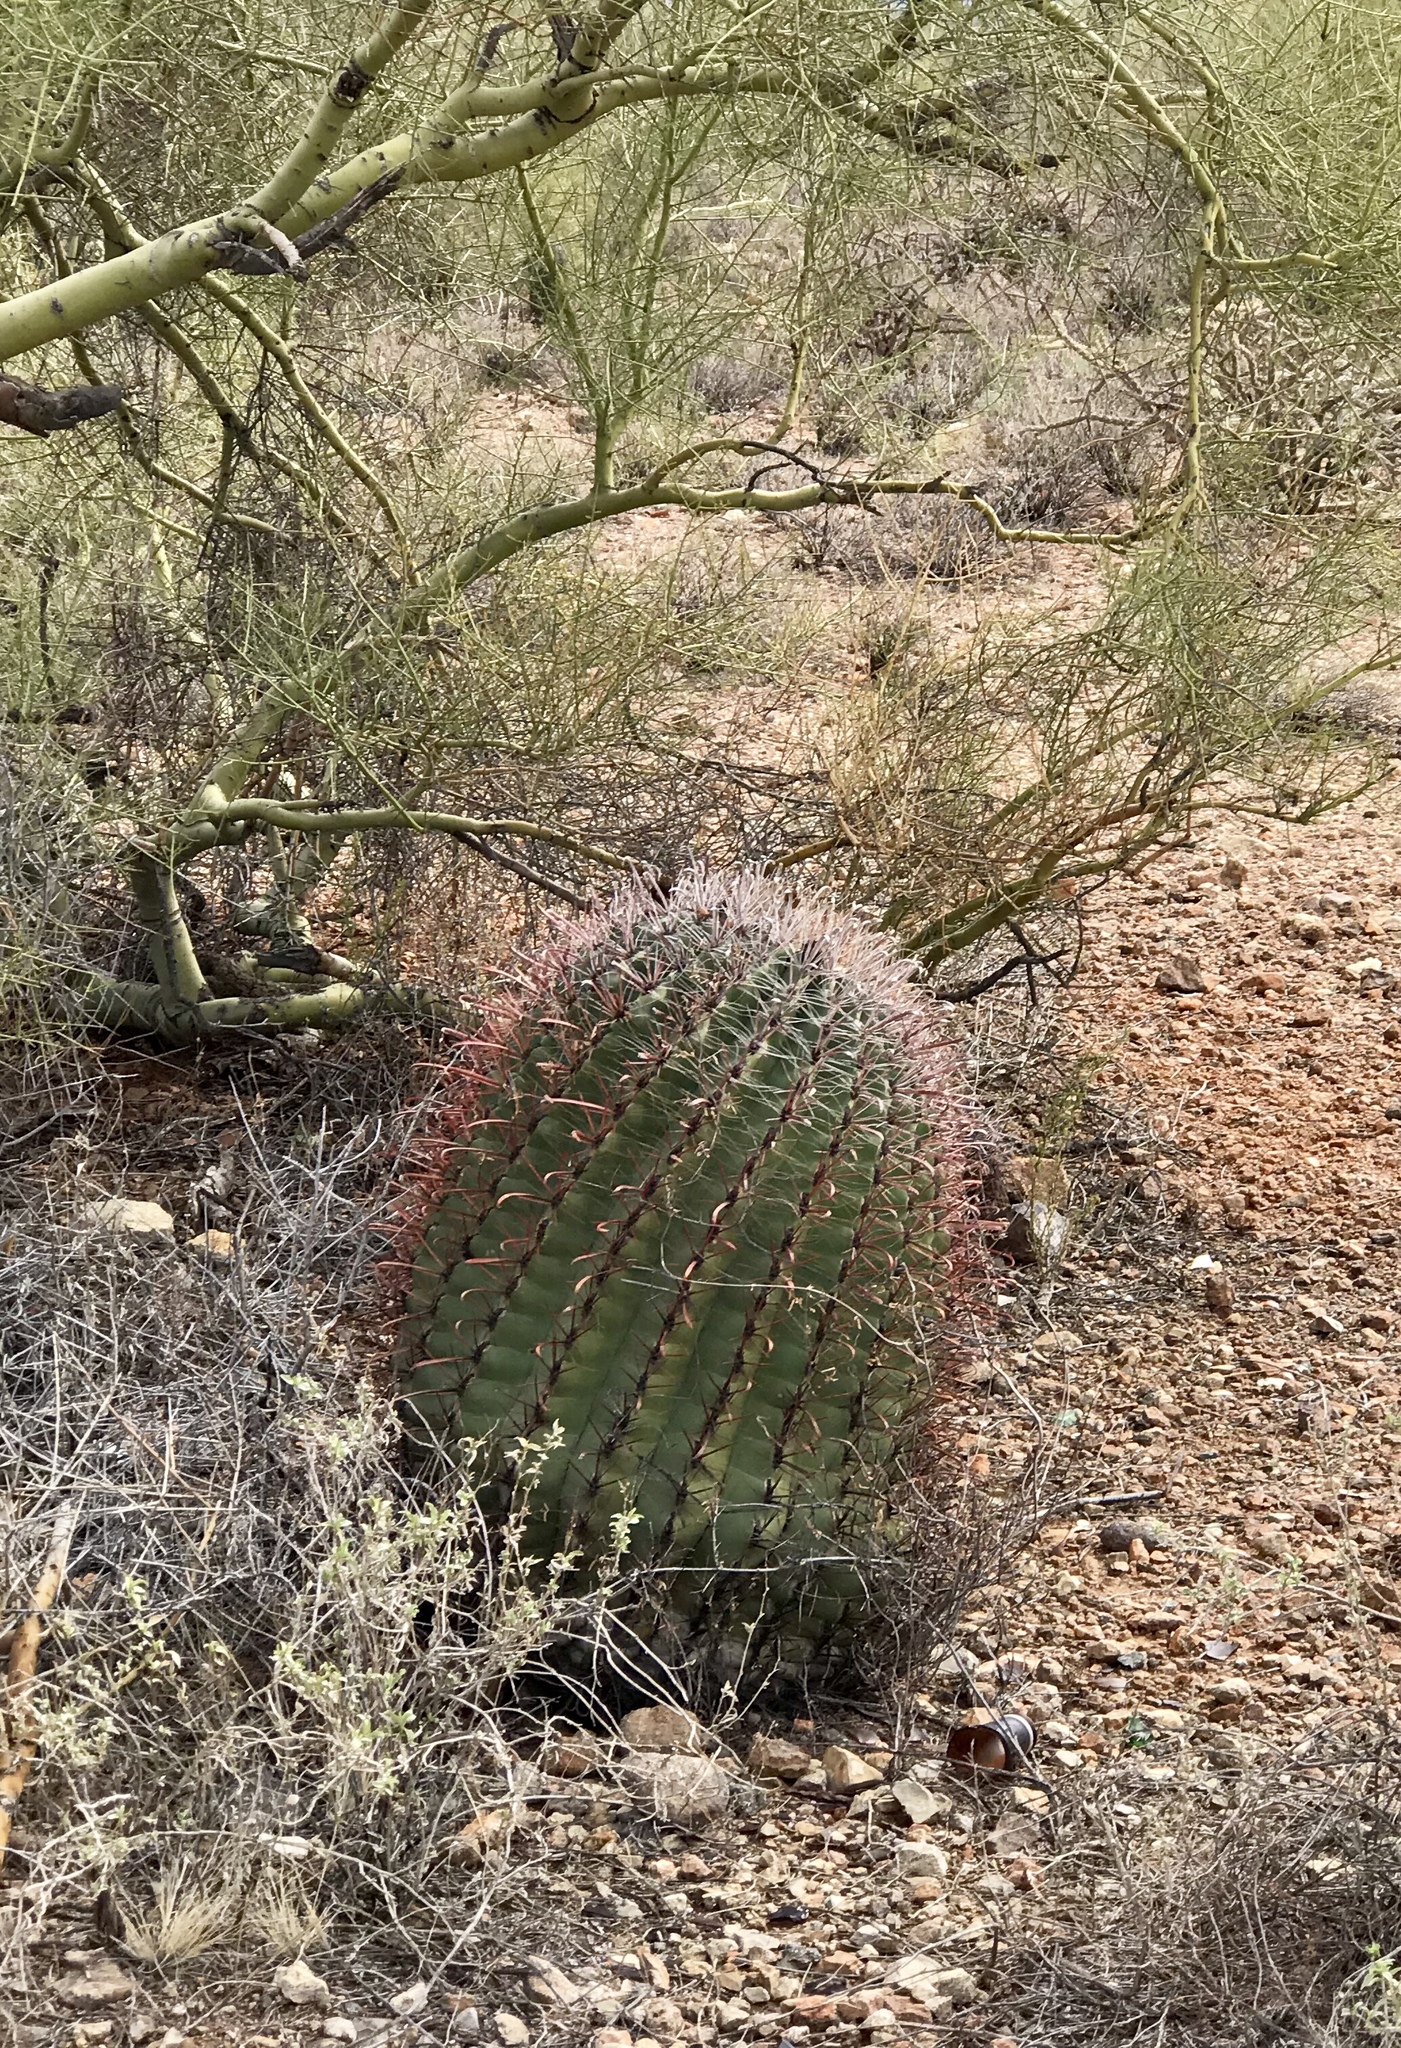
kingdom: Plantae
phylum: Tracheophyta
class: Magnoliopsida
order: Caryophyllales
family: Cactaceae
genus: Ferocactus
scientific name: Ferocactus wislizeni
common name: Candy barrel cactus
